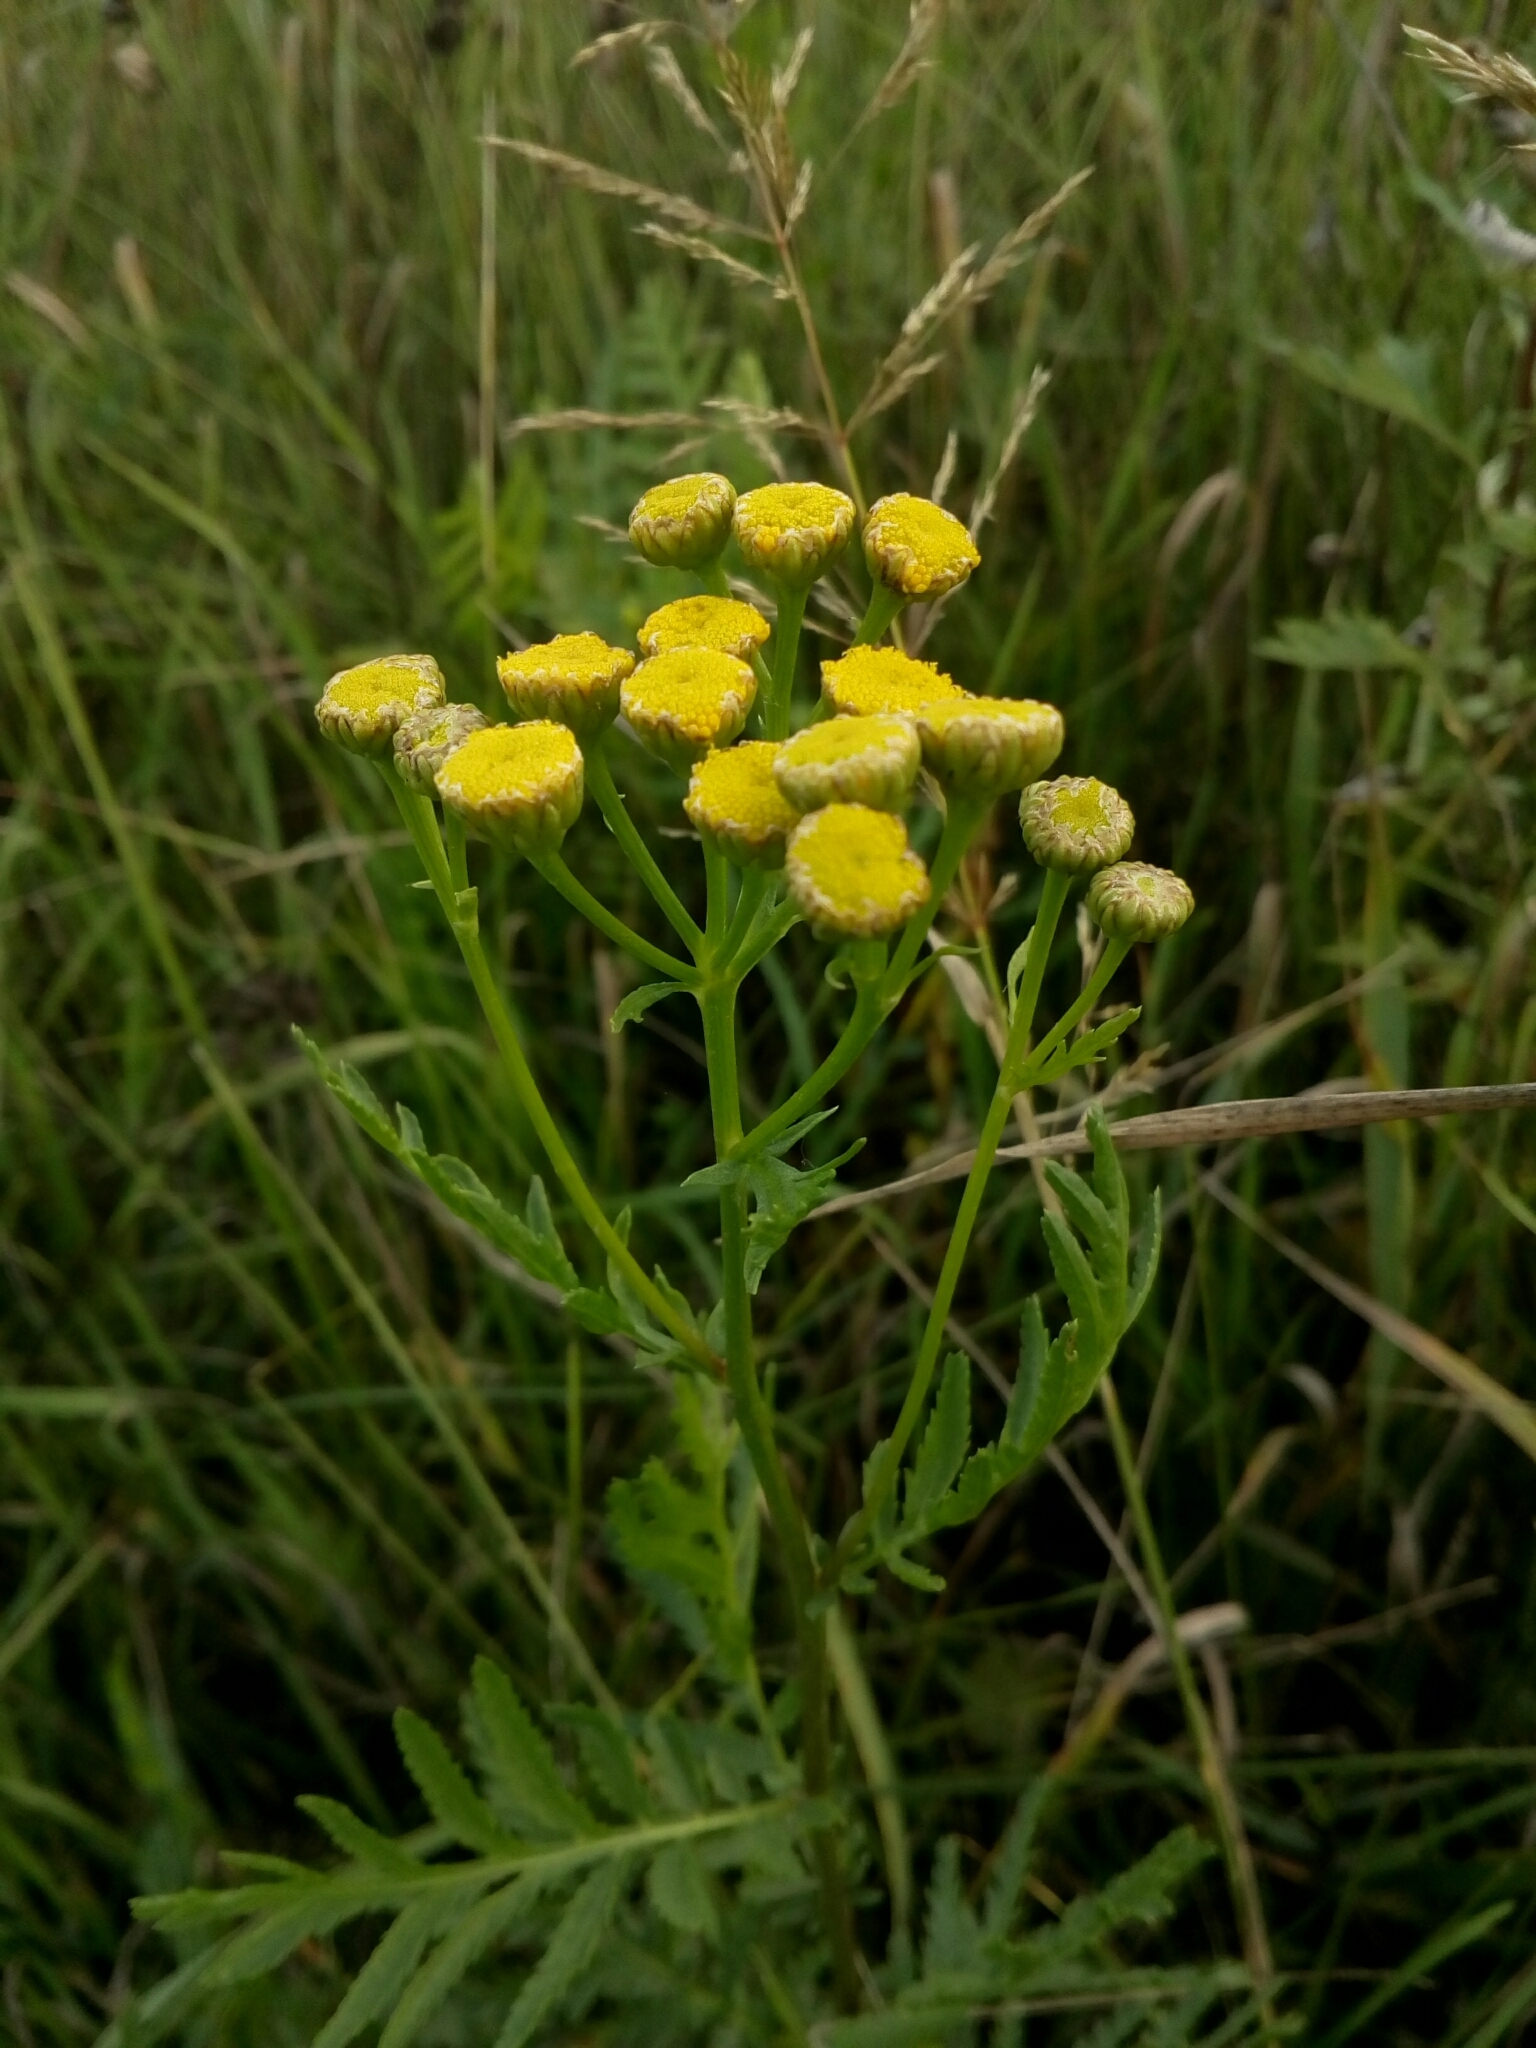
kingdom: Plantae
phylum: Tracheophyta
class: Magnoliopsida
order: Asterales
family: Asteraceae
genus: Tanacetum
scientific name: Tanacetum vulgare
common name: Common tansy
